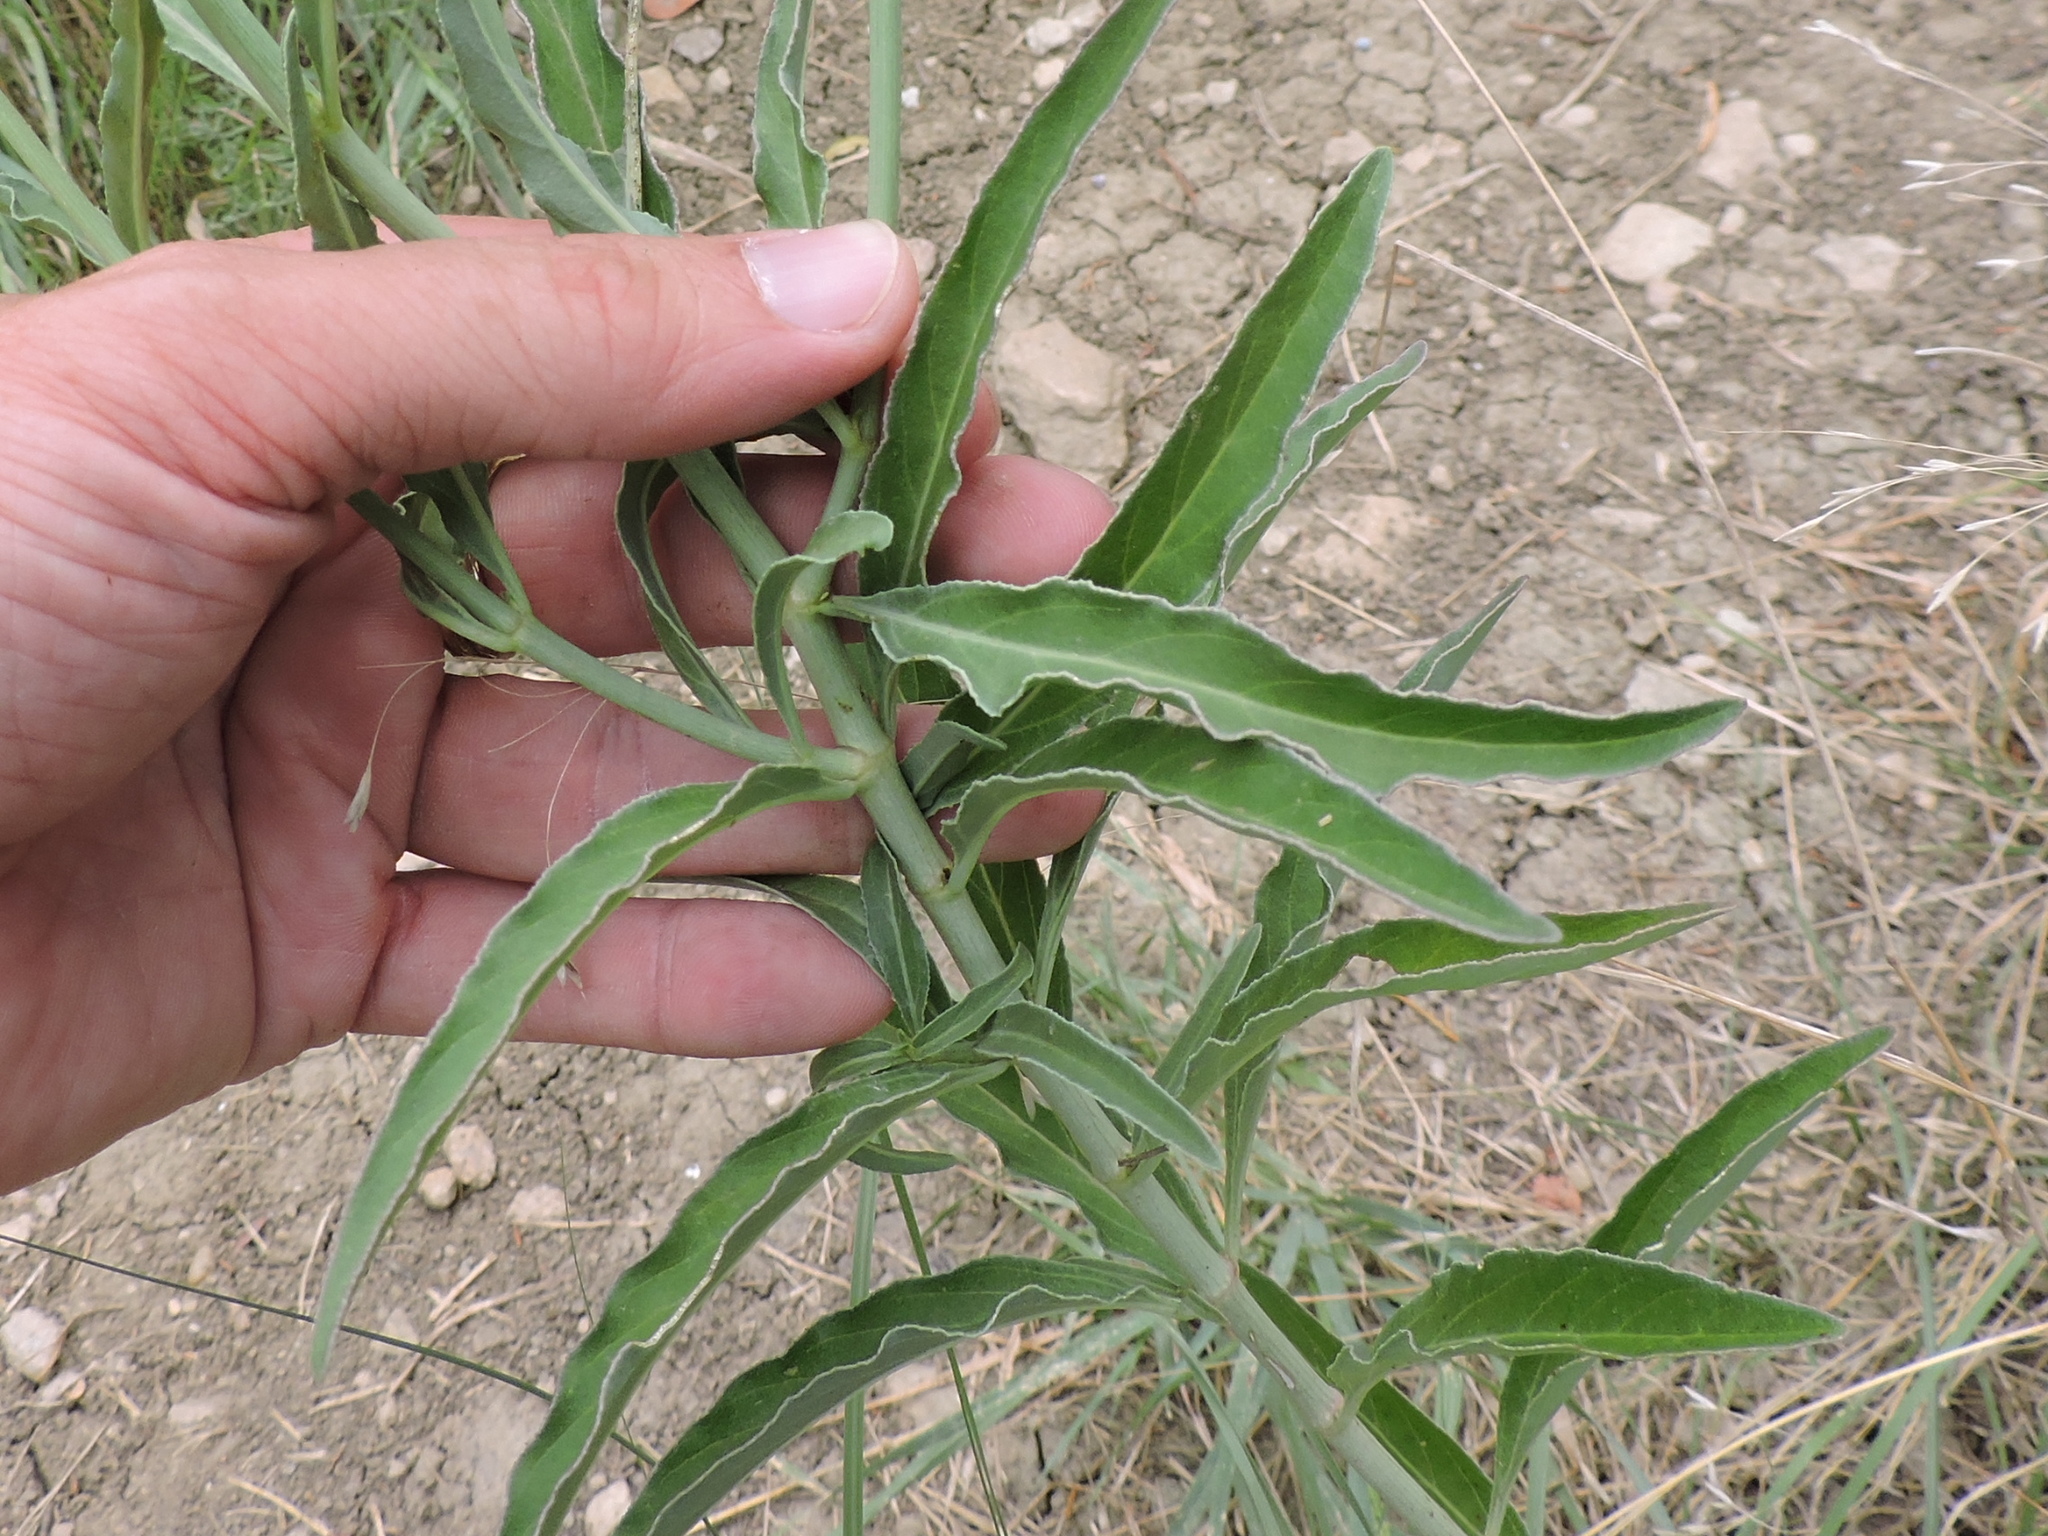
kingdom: Plantae
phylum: Tracheophyta
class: Magnoliopsida
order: Caryophyllales
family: Nyctaginaceae
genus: Mirabilis
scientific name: Mirabilis albida
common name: Hairy four-o'clock
